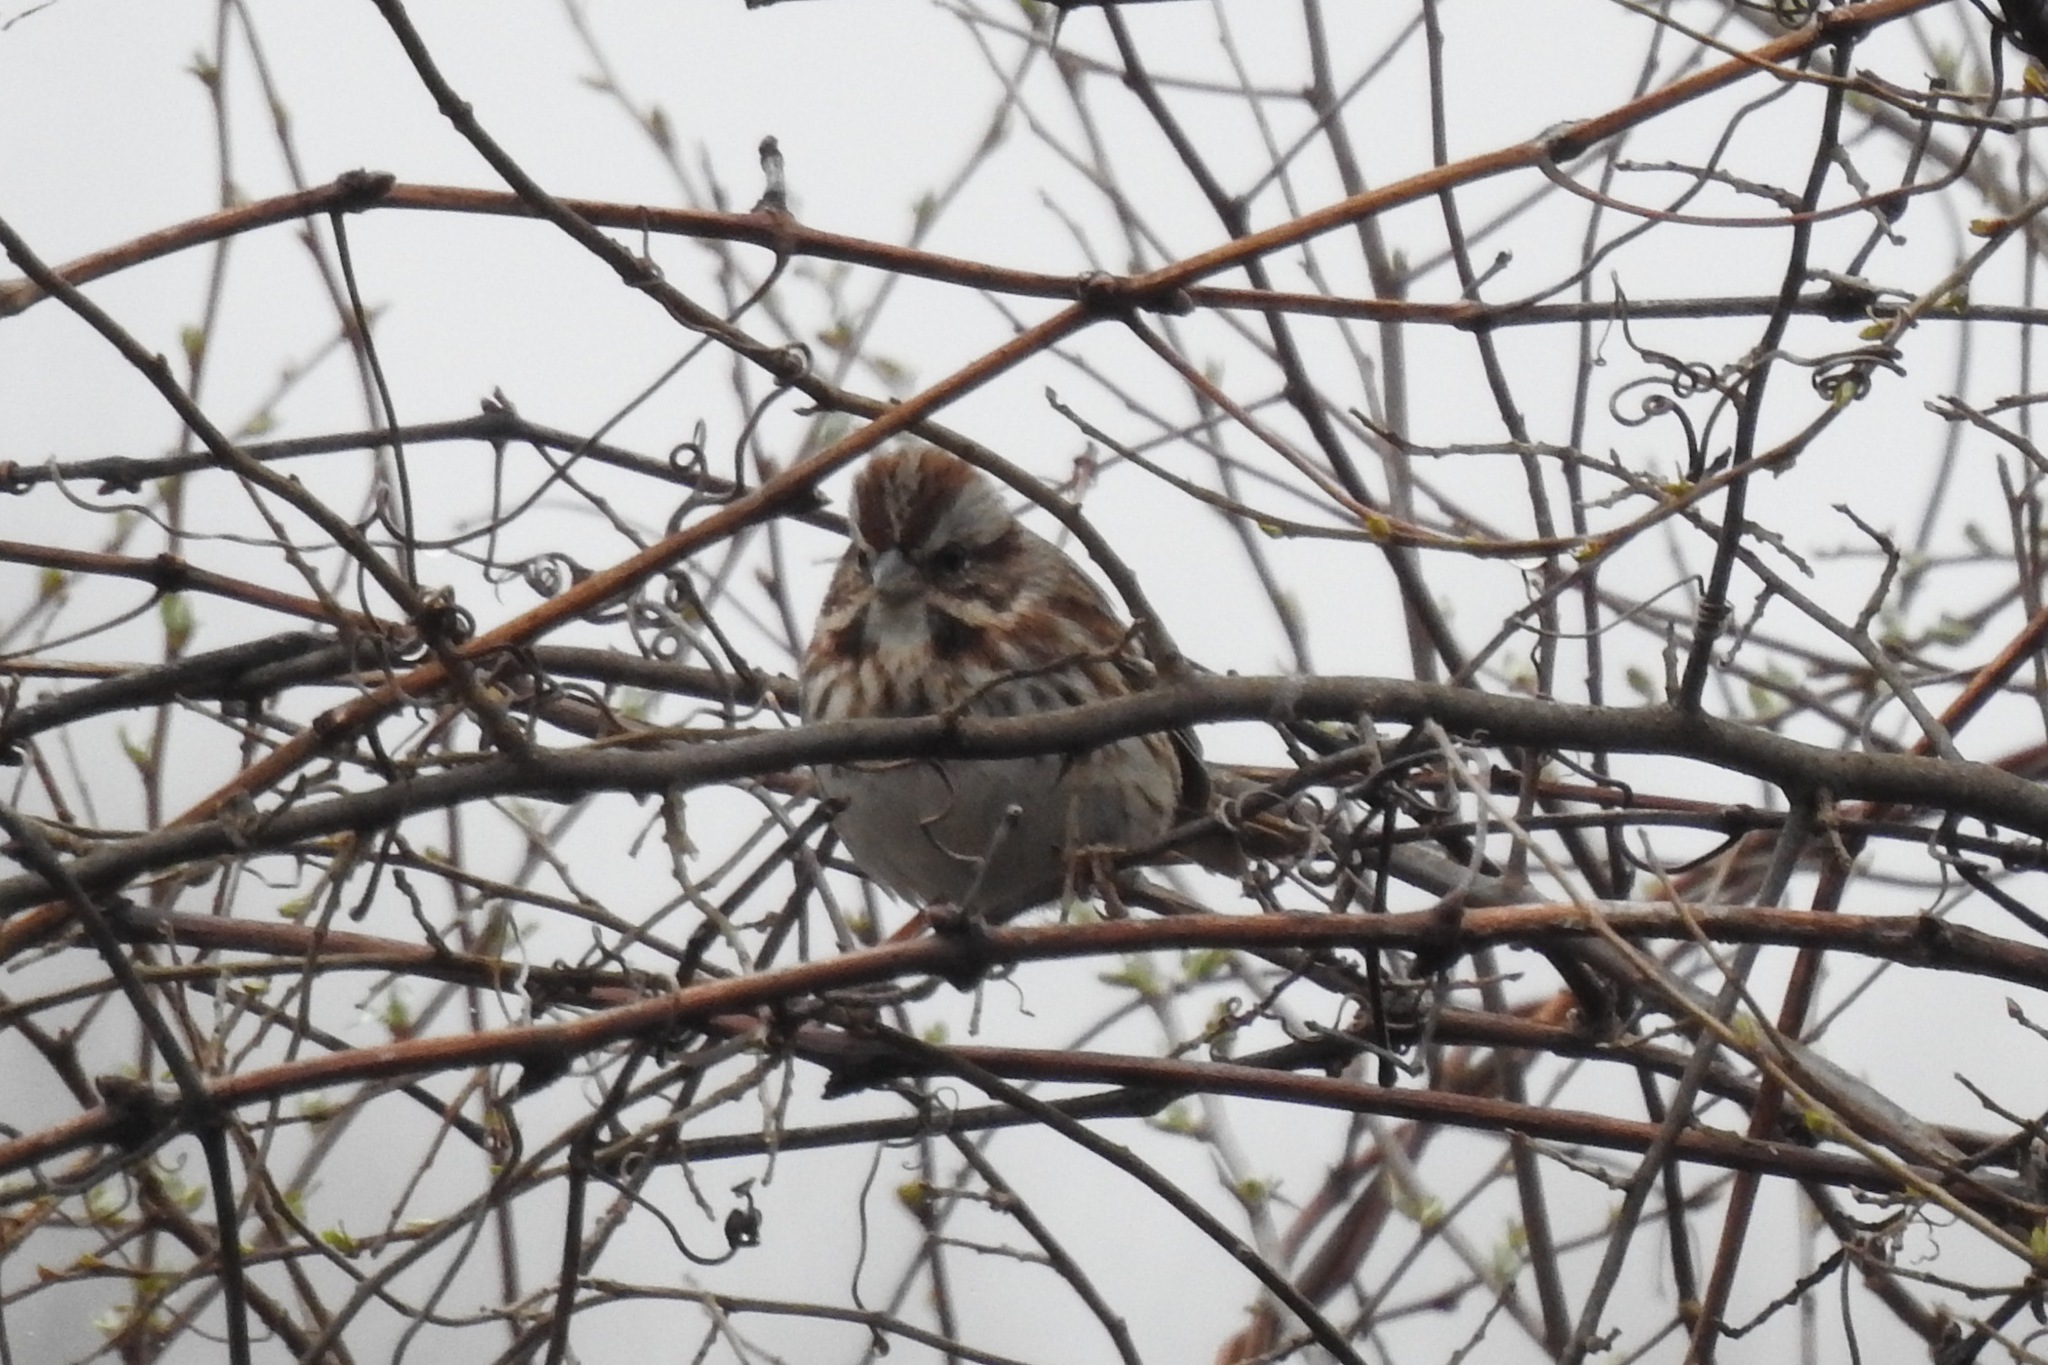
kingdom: Animalia
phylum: Chordata
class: Aves
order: Passeriformes
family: Passerellidae
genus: Melospiza
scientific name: Melospiza melodia
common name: Song sparrow
